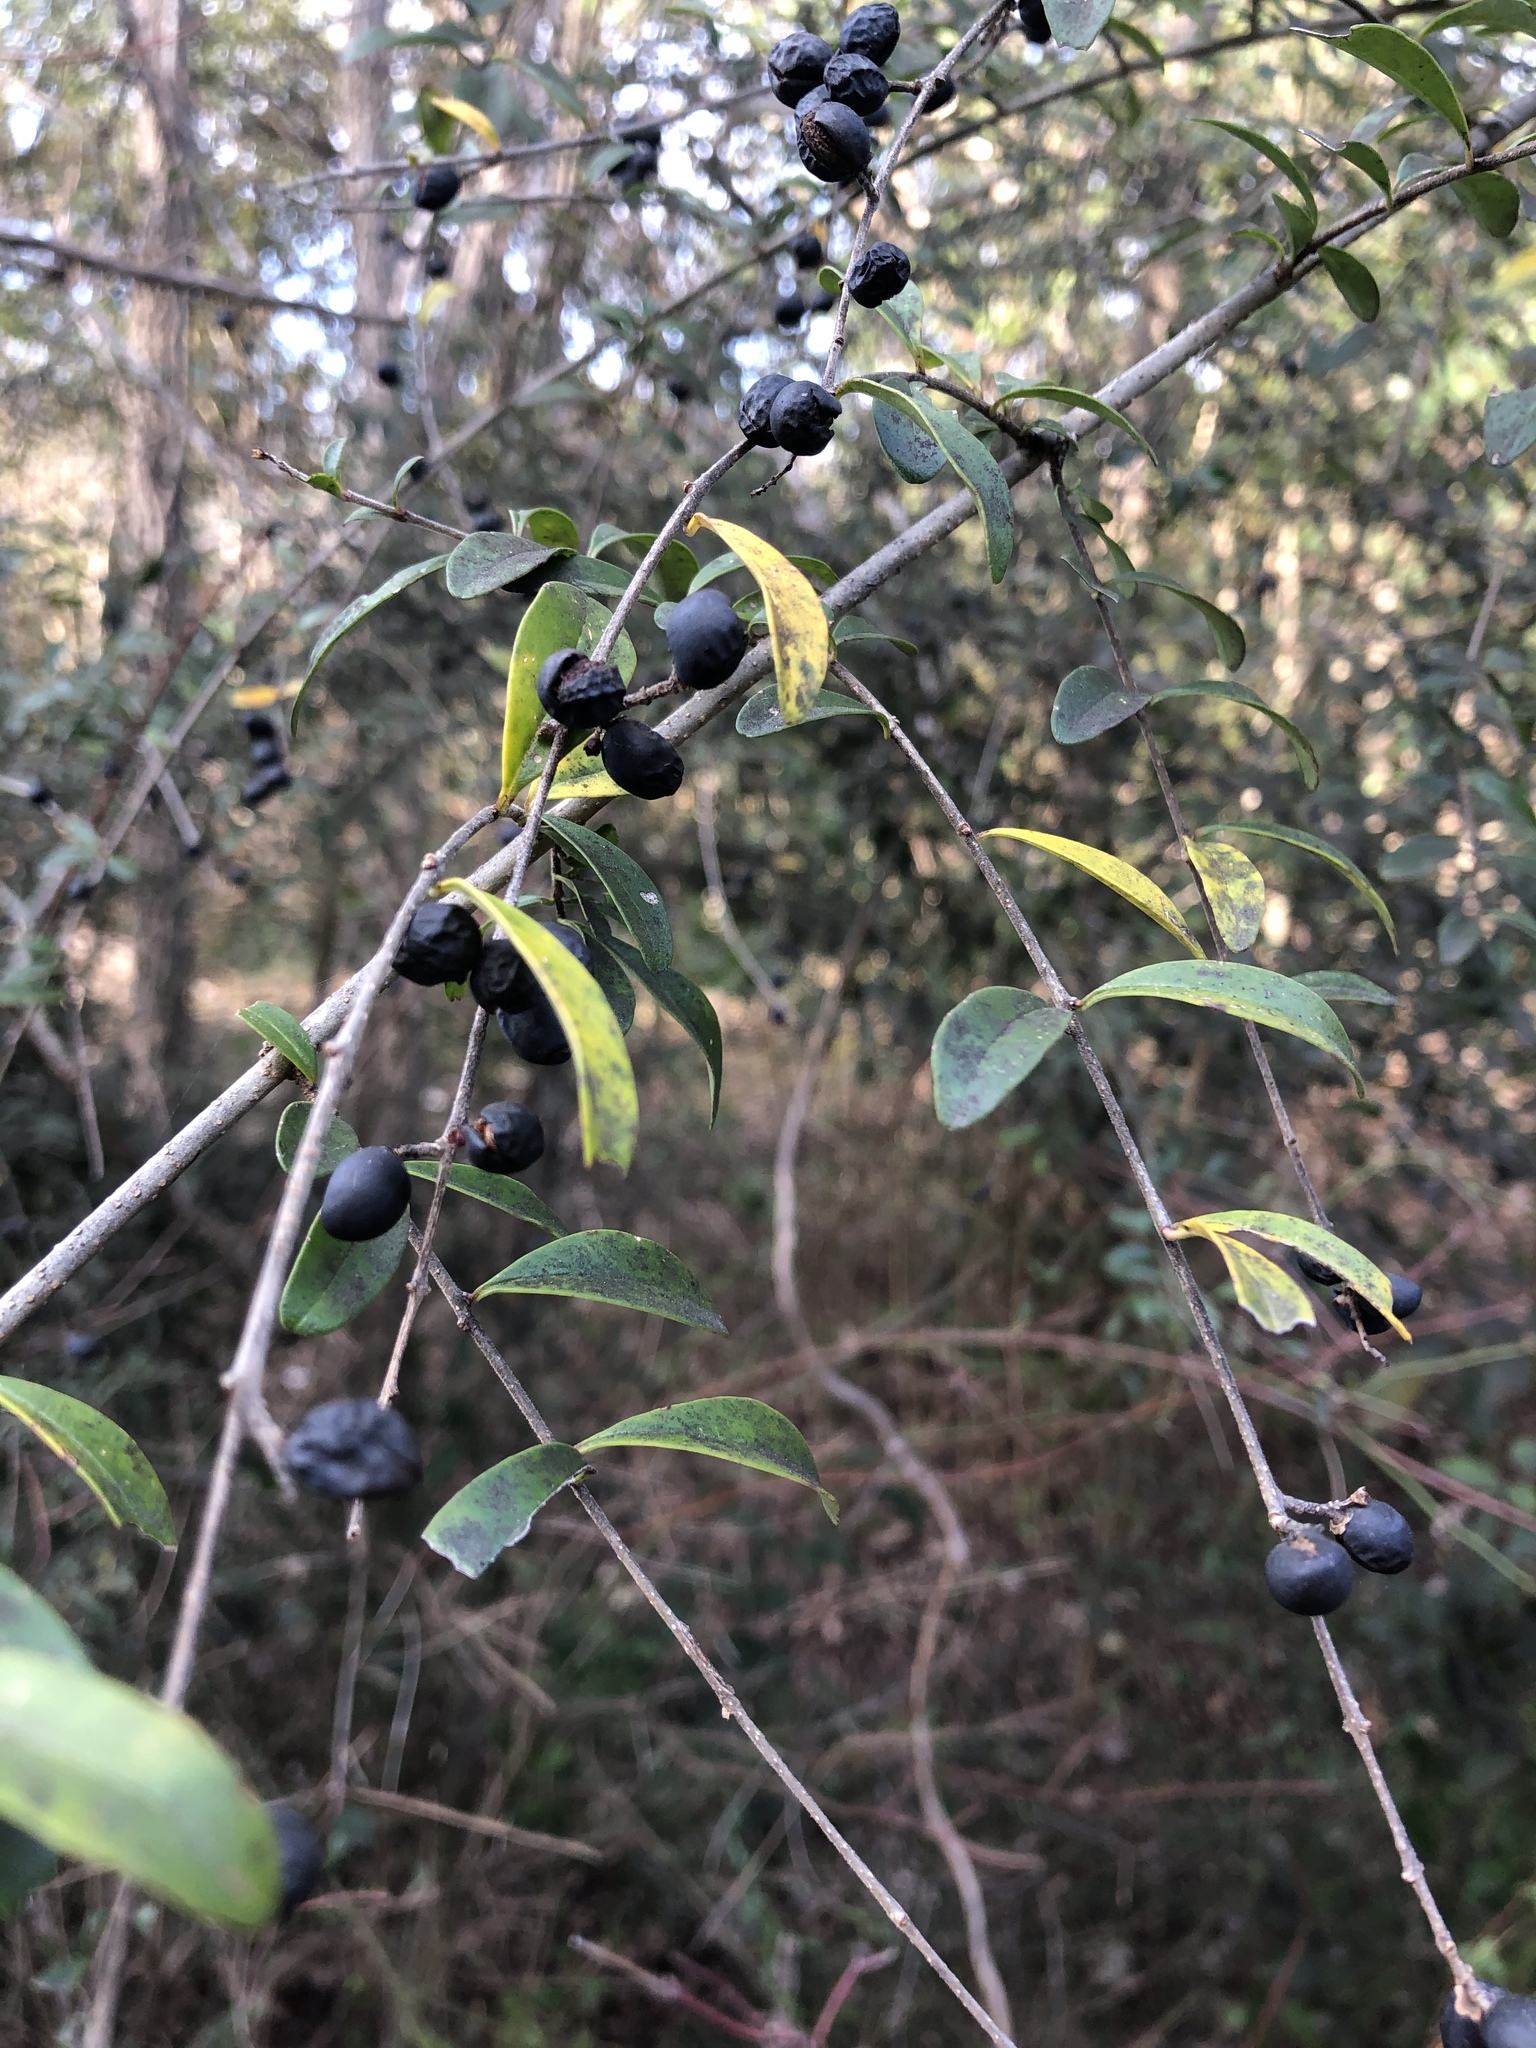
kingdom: Plantae
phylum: Tracheophyta
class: Magnoliopsida
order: Lamiales
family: Oleaceae
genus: Ligustrum
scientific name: Ligustrum quihoui
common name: Waxyleaf privet
